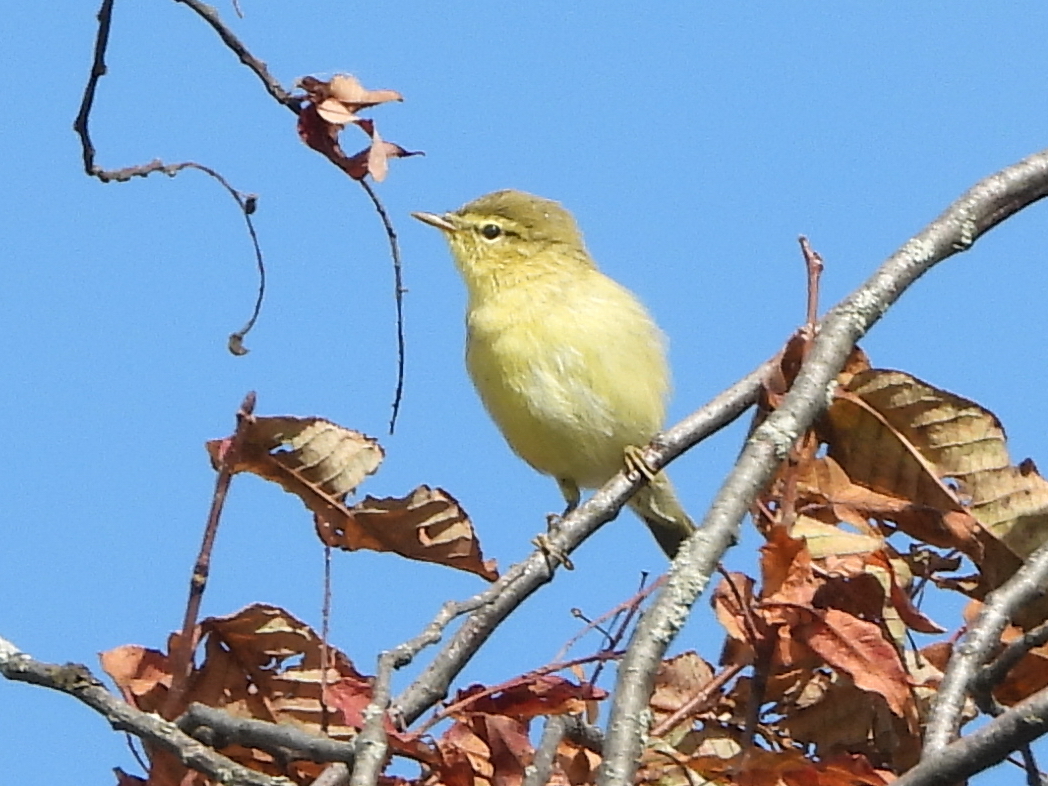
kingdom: Animalia
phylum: Chordata
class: Aves
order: Passeriformes
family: Phylloscopidae
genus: Phylloscopus
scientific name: Phylloscopus trochilus
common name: Willow warbler
